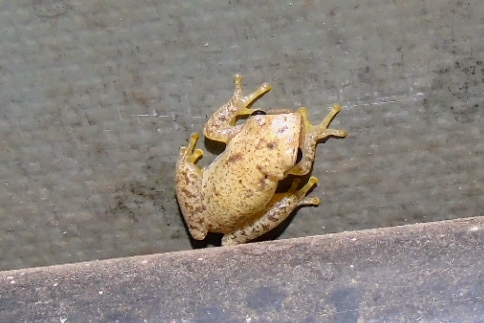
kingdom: Animalia
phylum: Chordata
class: Amphibia
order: Anura
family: Hylidae
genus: Tlalocohyla
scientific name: Tlalocohyla smithii
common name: Dwarf mexican treefrog
